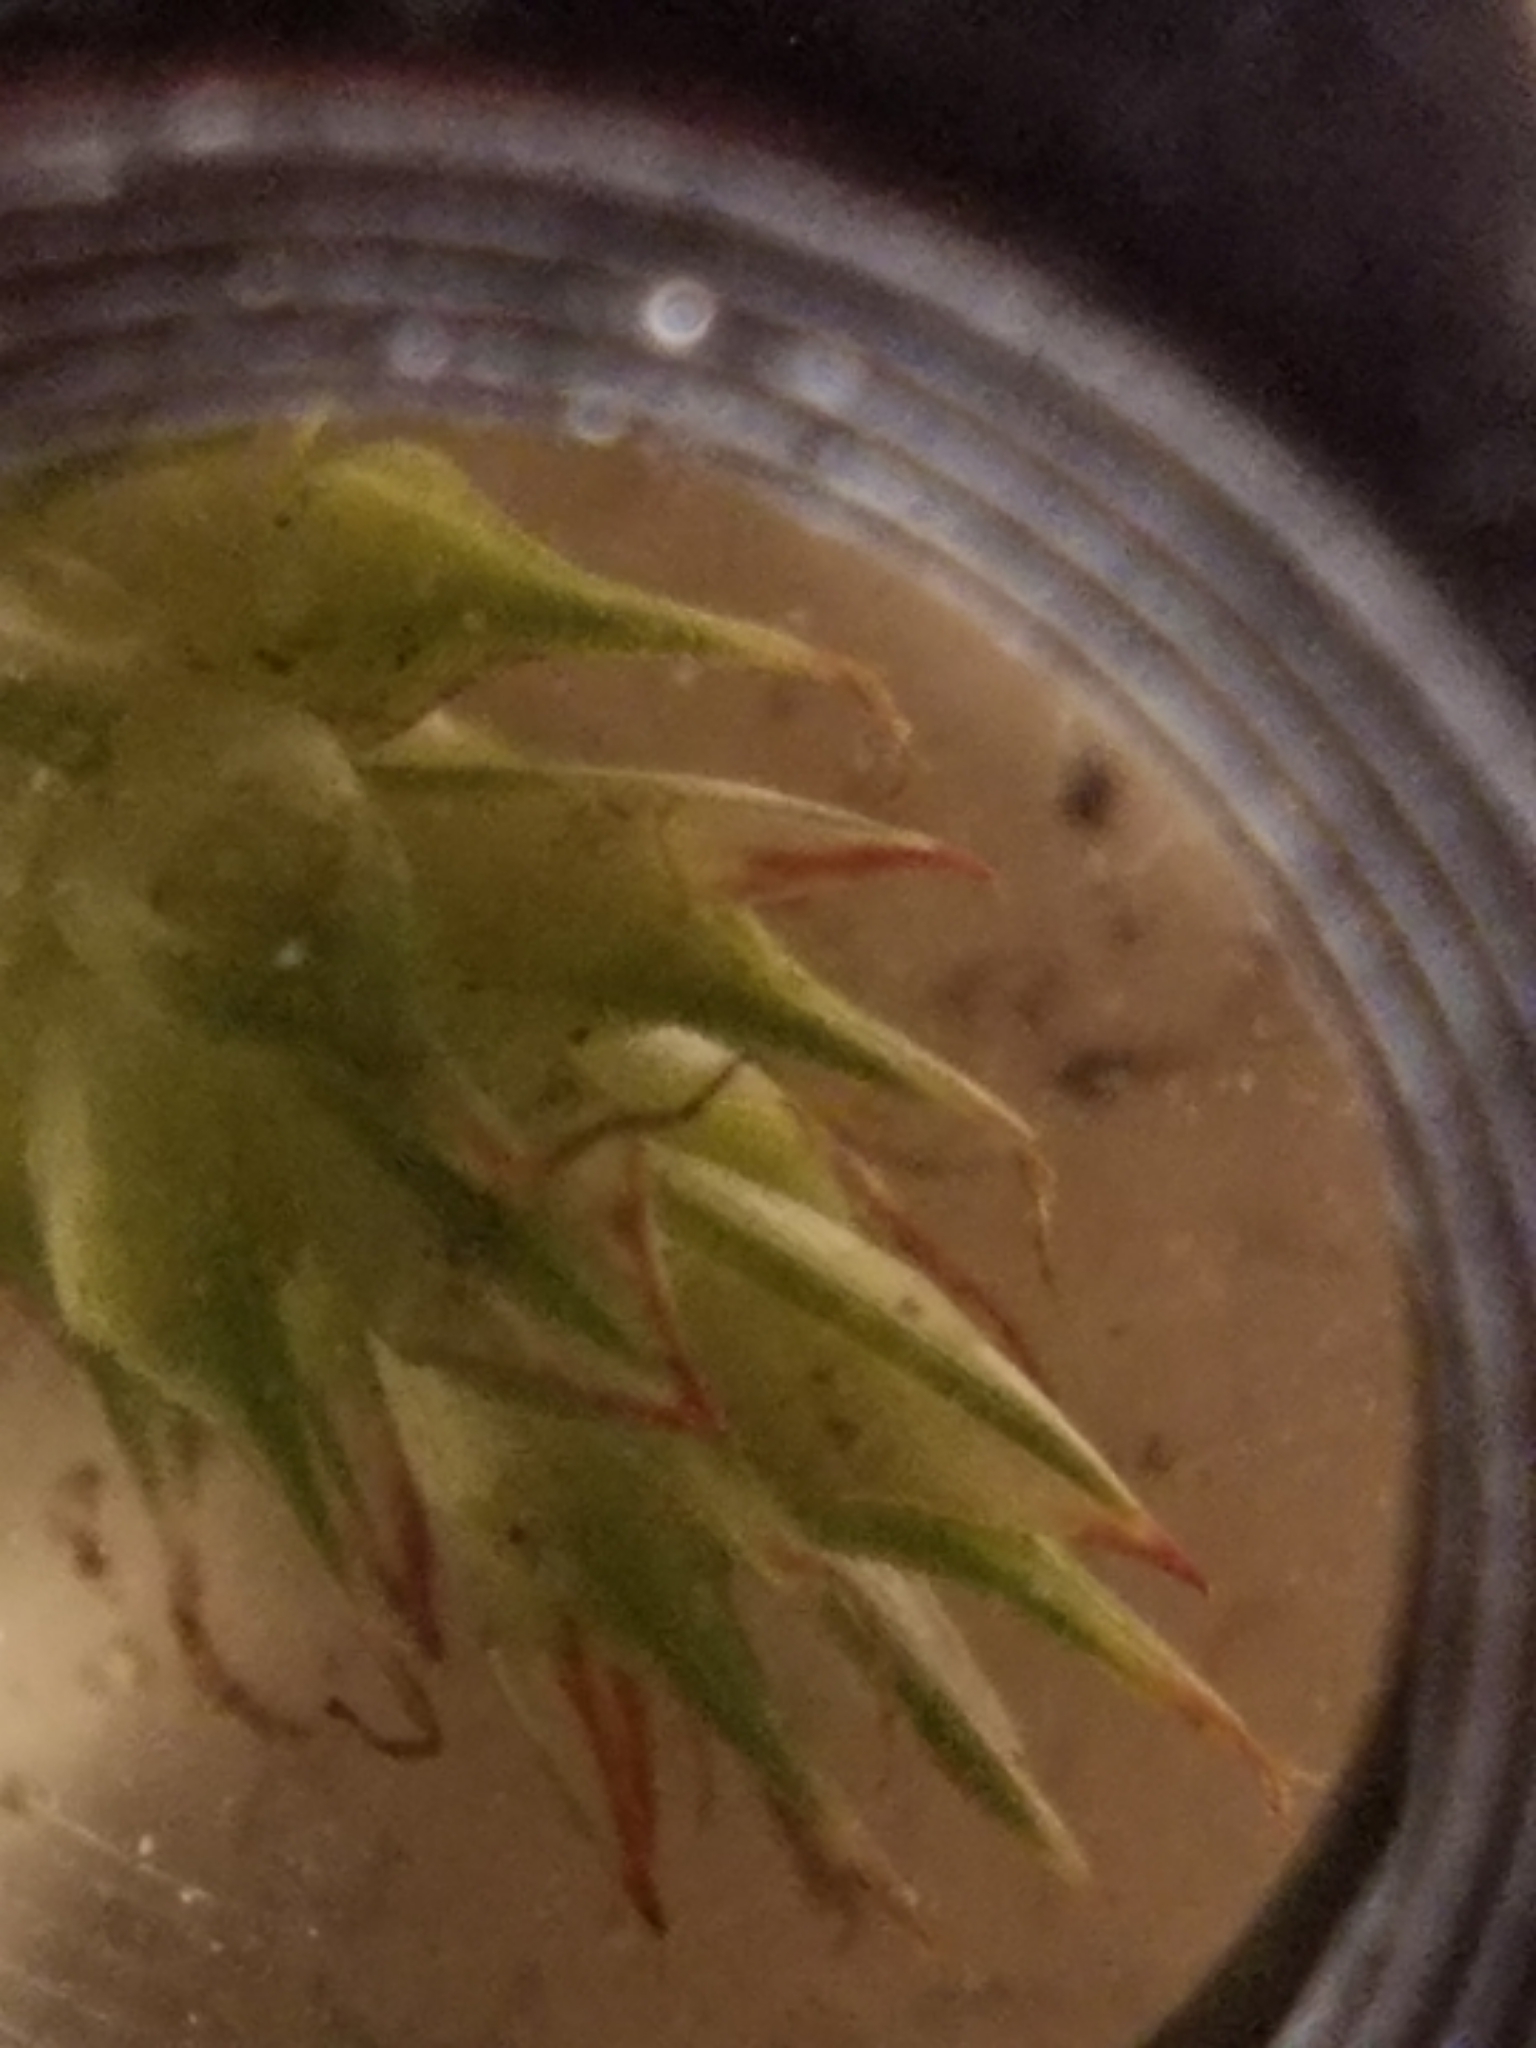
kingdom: Plantae
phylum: Tracheophyta
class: Liliopsida
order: Poales
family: Cyperaceae
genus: Carex
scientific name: Carex tonsa
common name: Bald sedge
